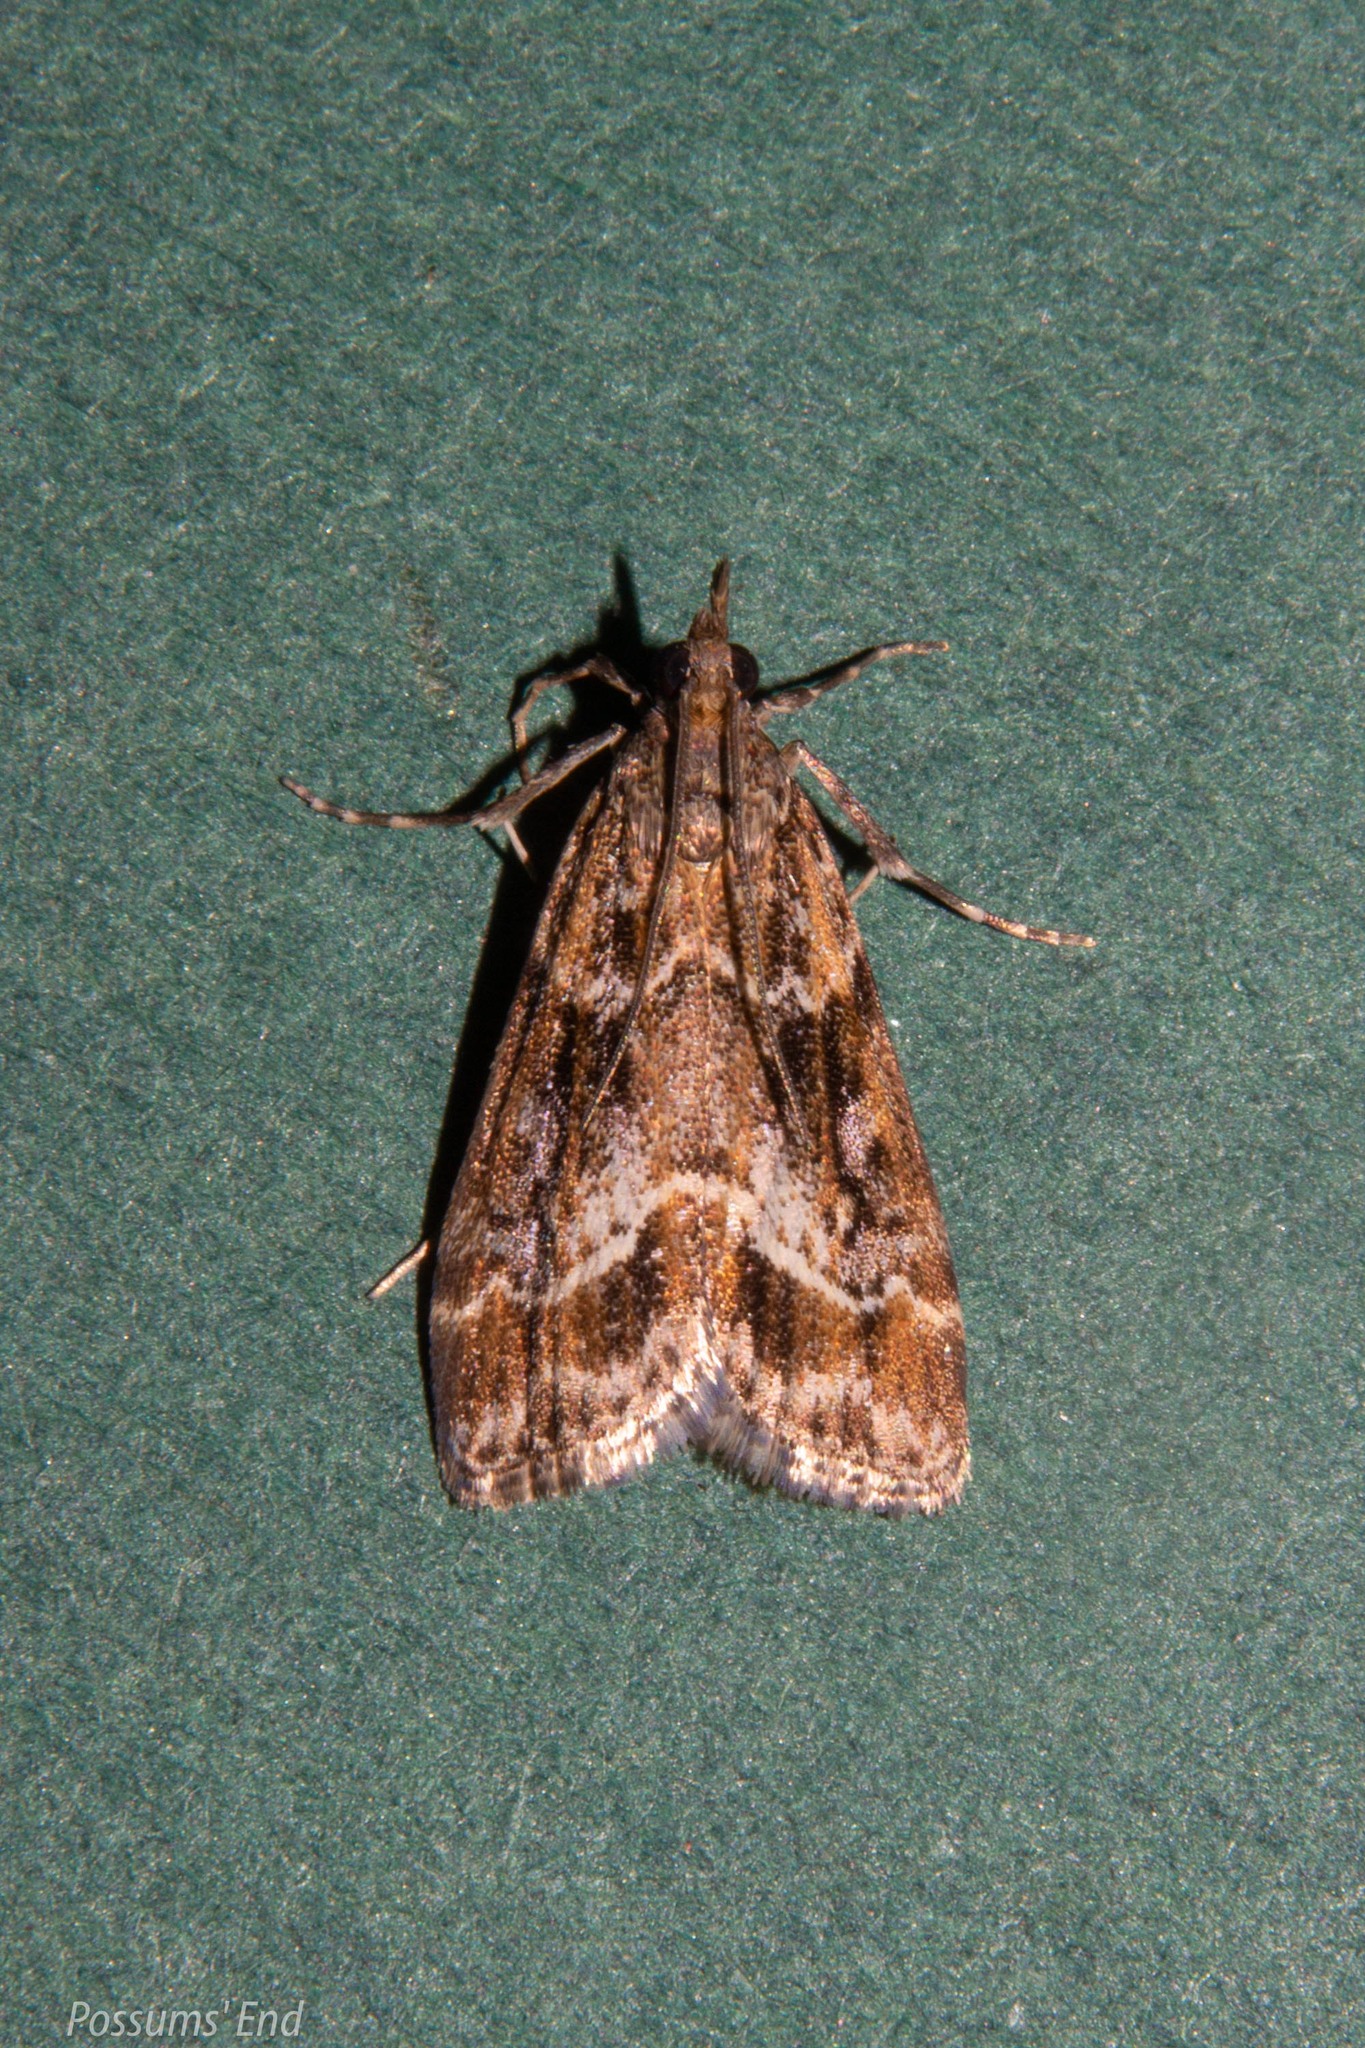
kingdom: Animalia
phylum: Arthropoda
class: Insecta
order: Lepidoptera
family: Crambidae
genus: Eudonia
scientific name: Eudonia legnota
